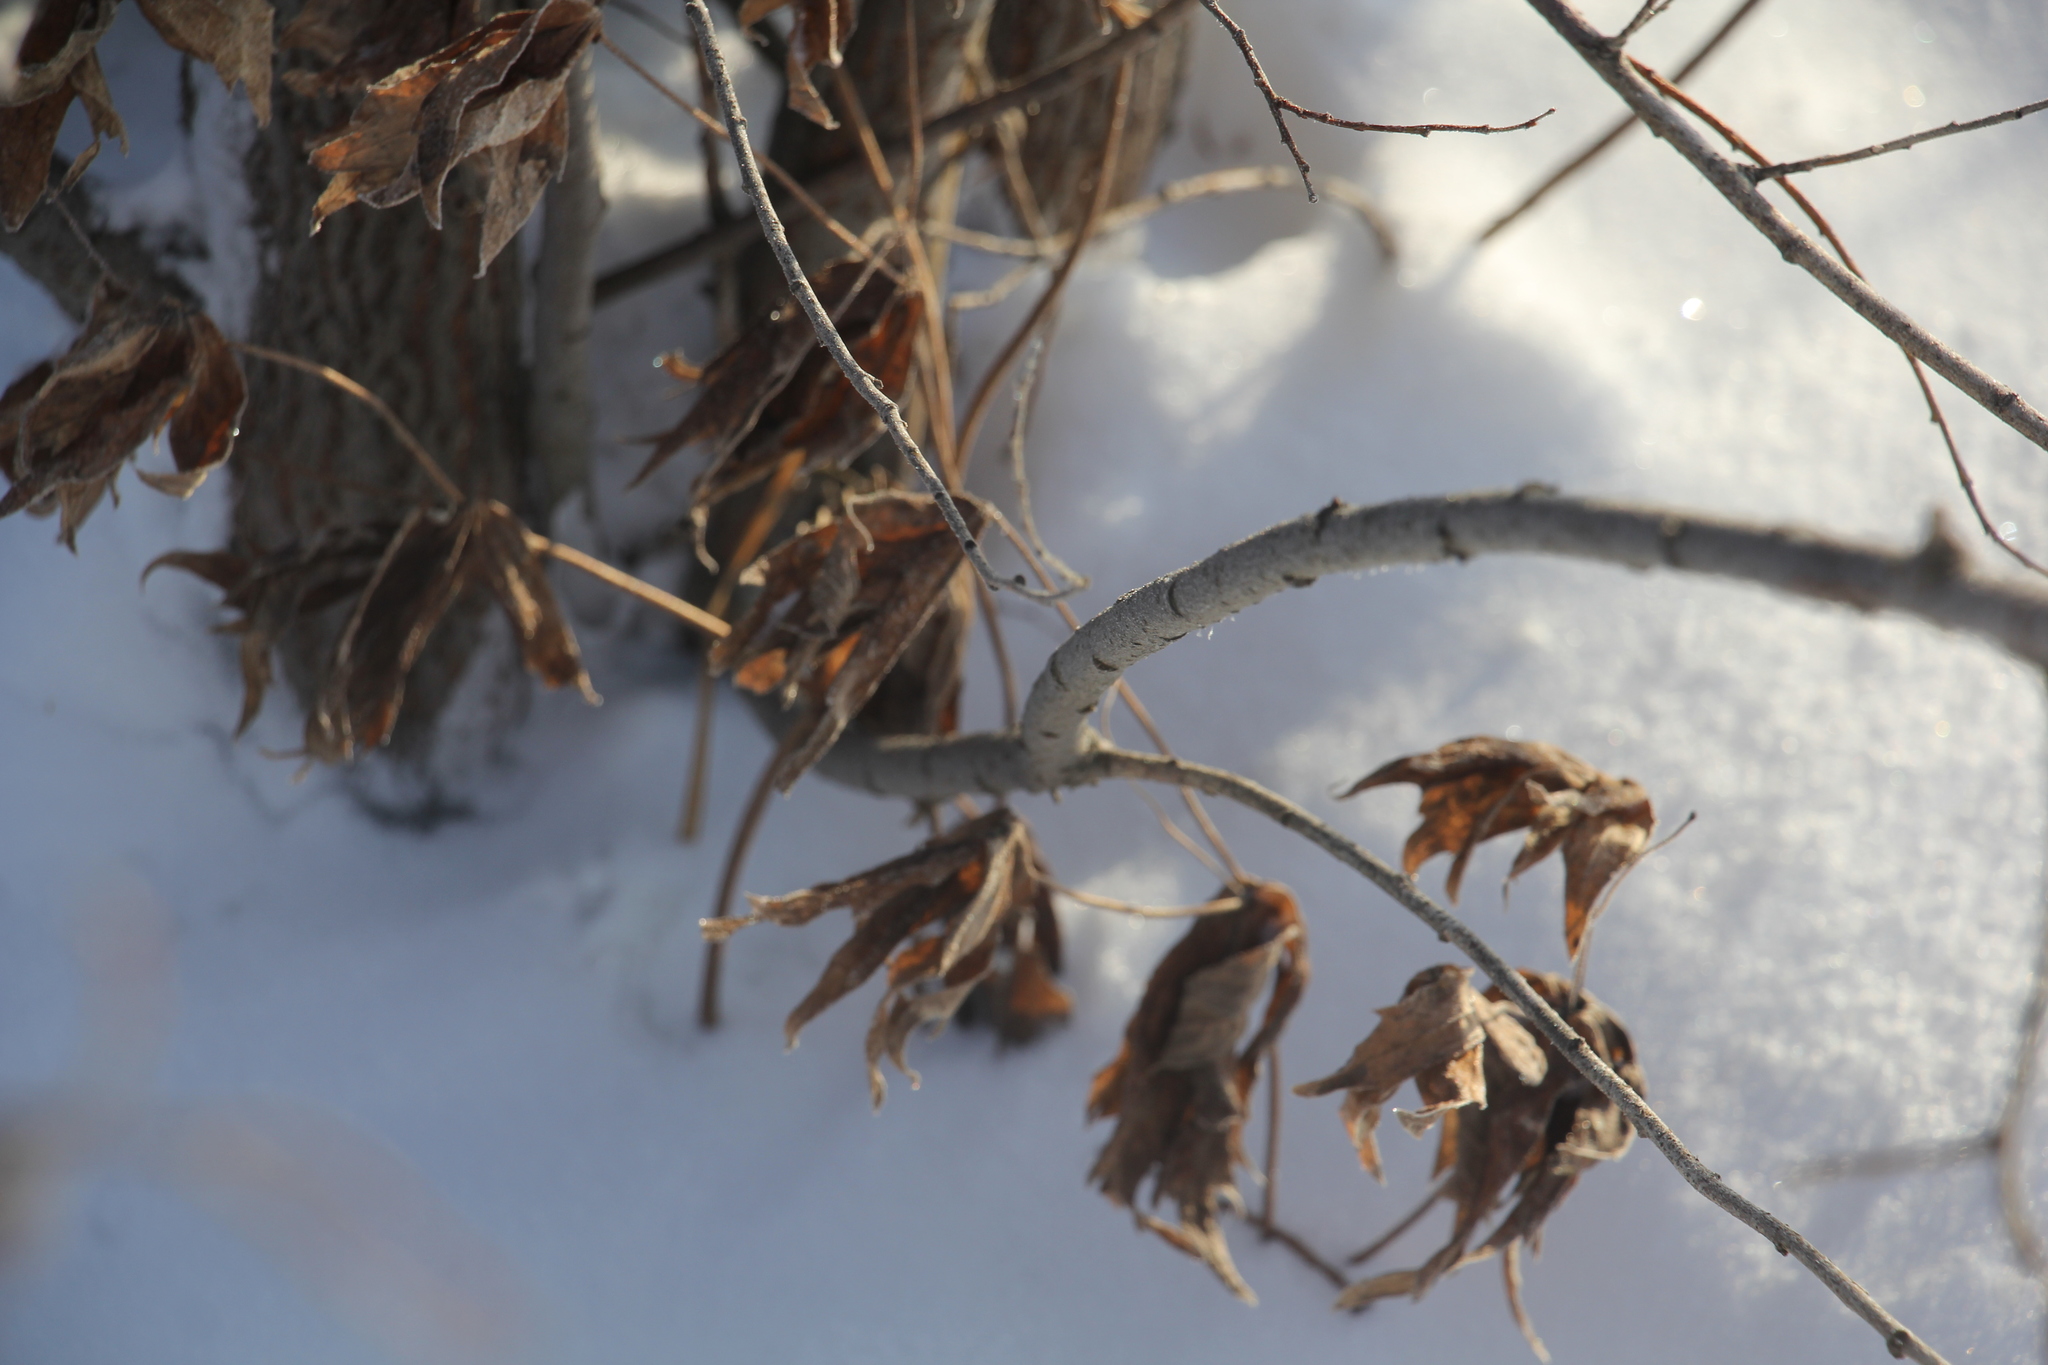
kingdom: Plantae
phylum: Tracheophyta
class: Magnoliopsida
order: Ranunculales
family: Ranunculaceae
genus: Anemonastrum
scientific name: Anemonastrum dichotomum
